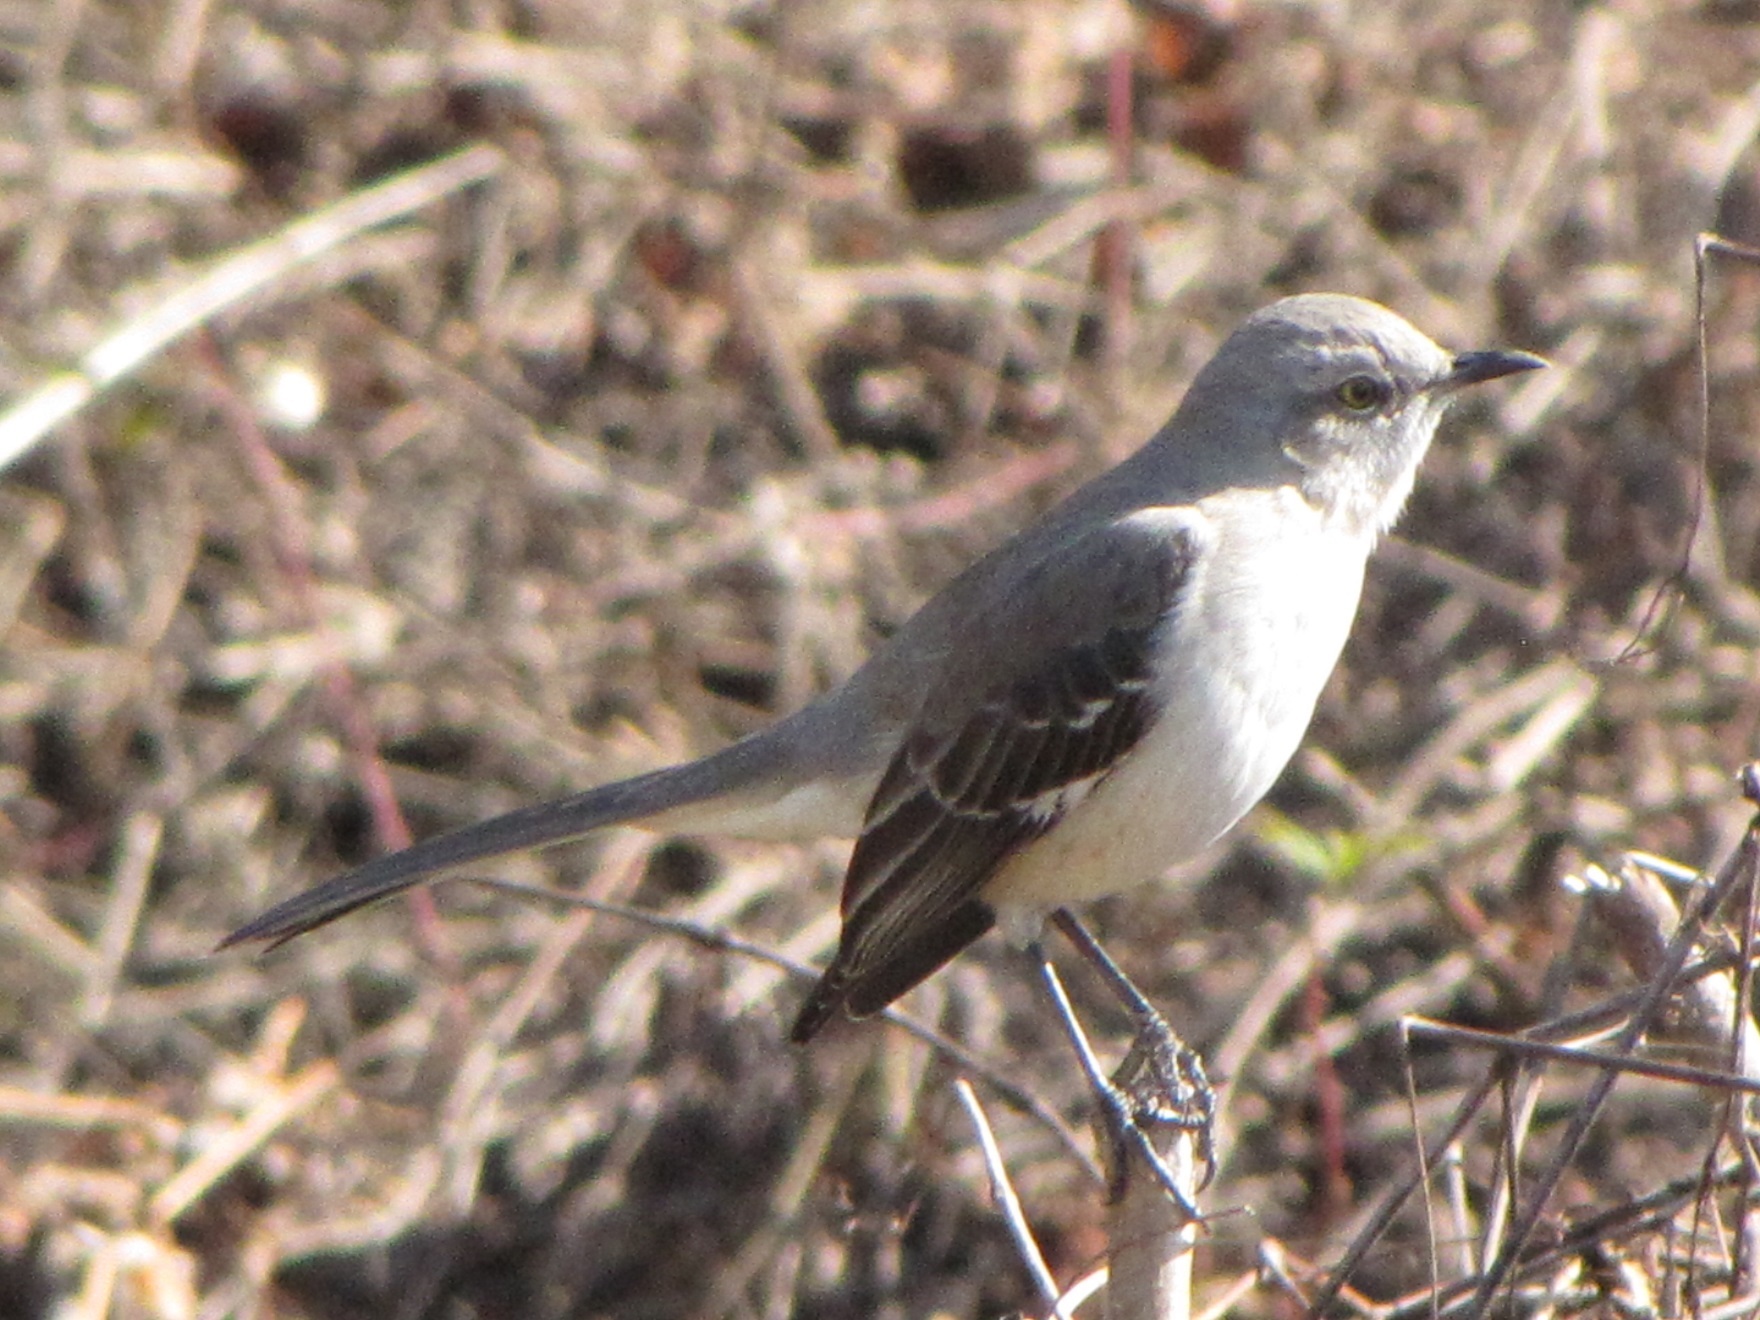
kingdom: Animalia
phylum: Chordata
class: Aves
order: Passeriformes
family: Mimidae
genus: Mimus
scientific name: Mimus polyglottos
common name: Northern mockingbird
